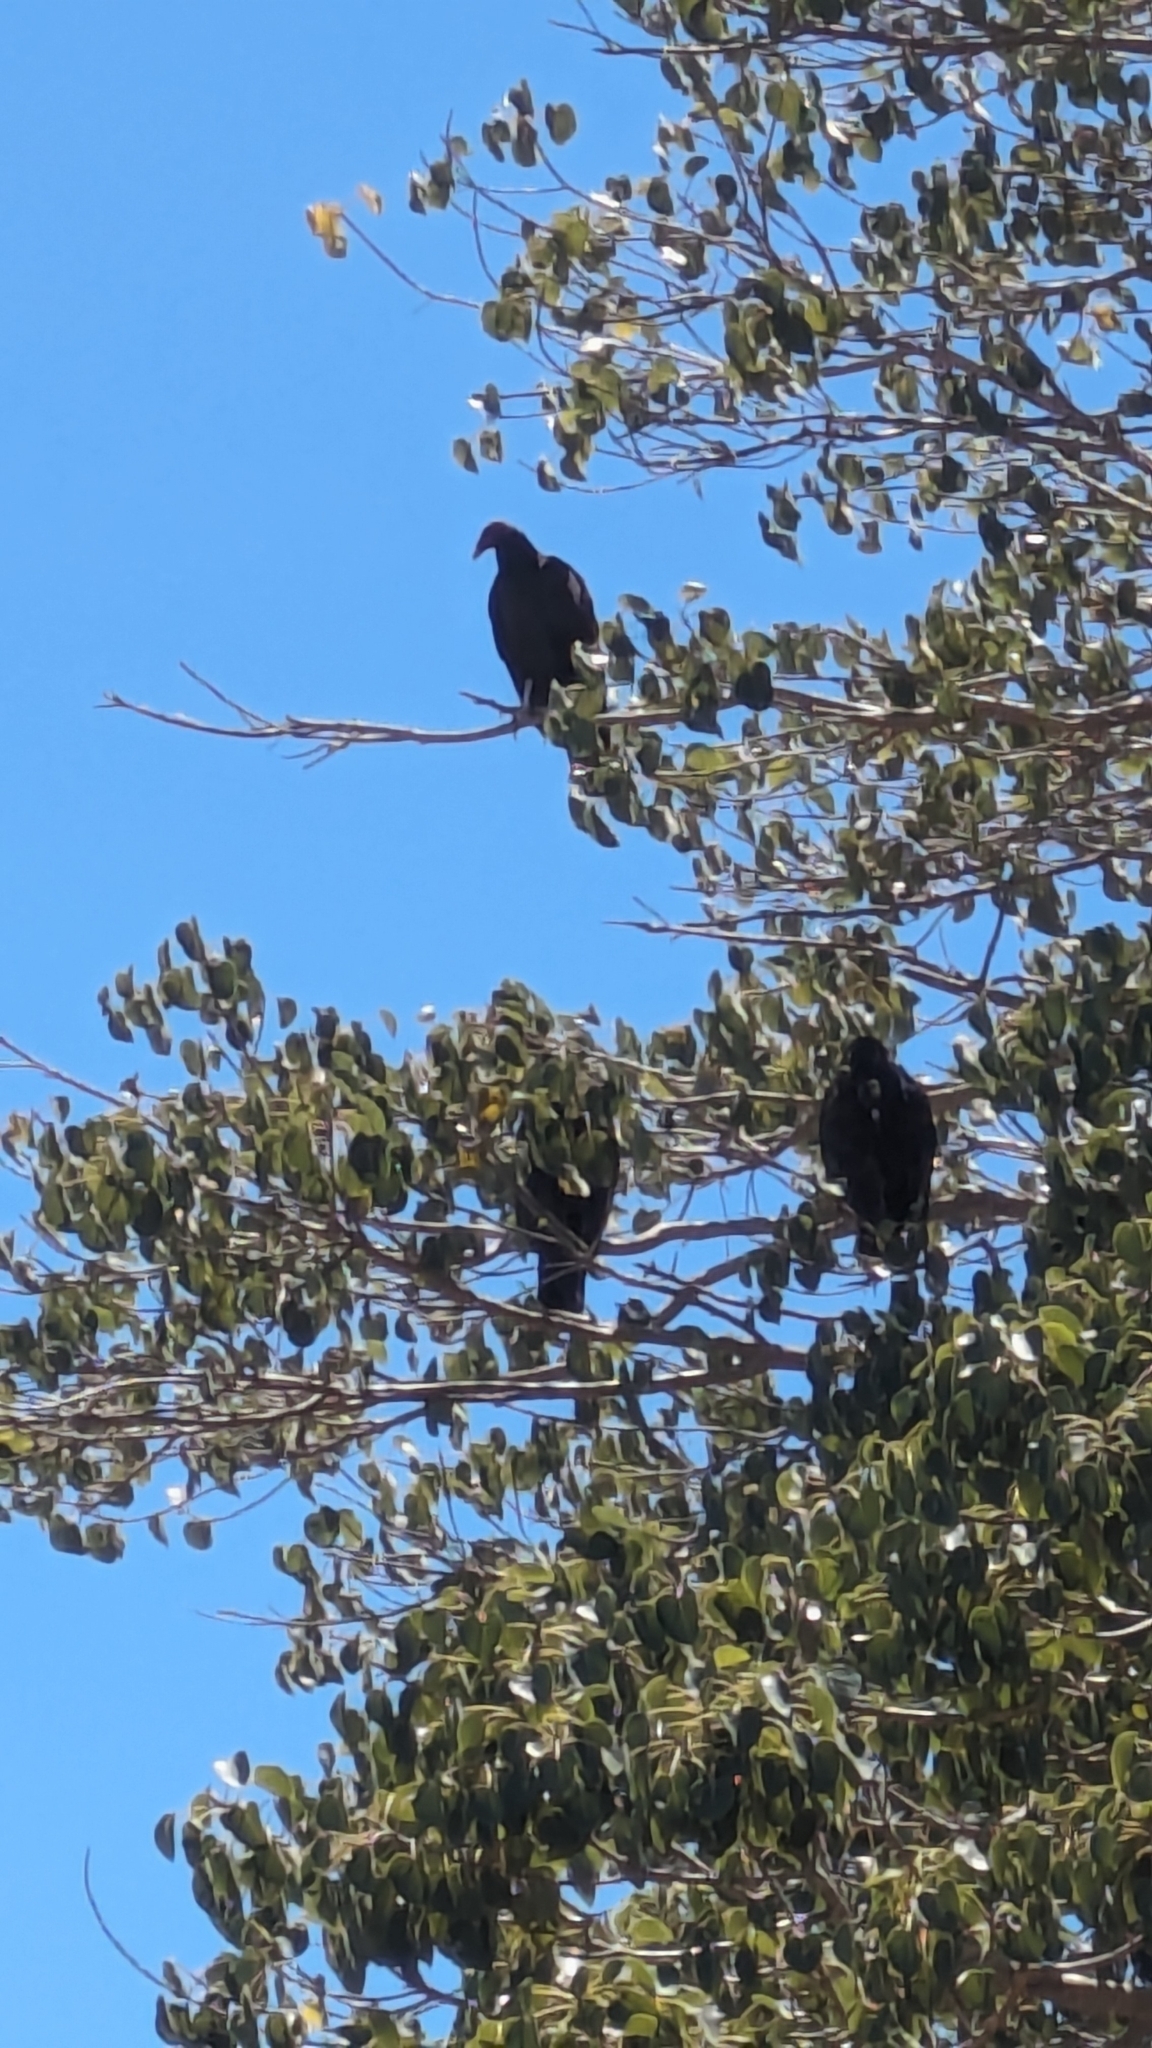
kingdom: Animalia
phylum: Chordata
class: Aves
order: Accipitriformes
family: Cathartidae
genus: Cathartes
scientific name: Cathartes aura
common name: Turkey vulture
